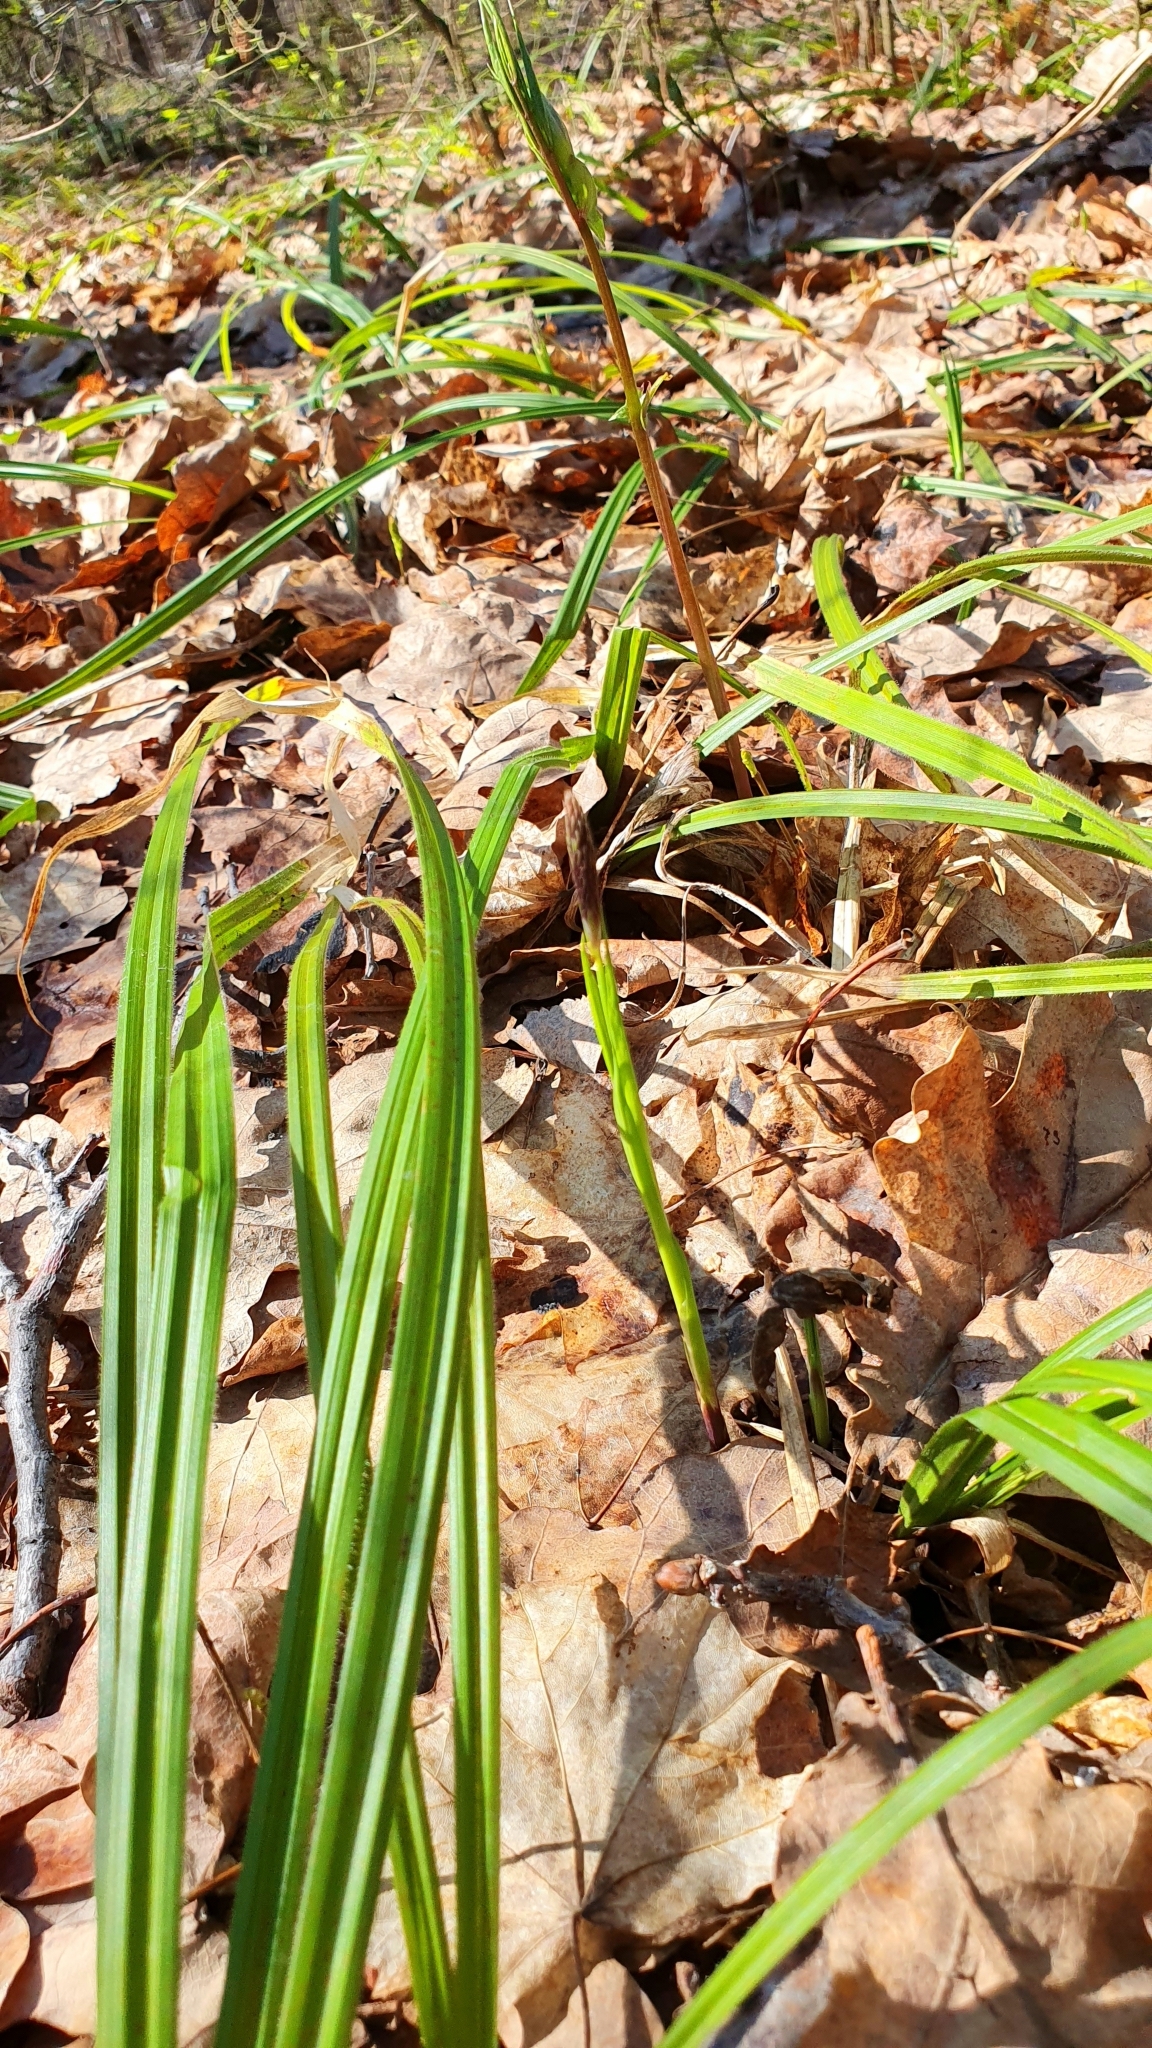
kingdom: Plantae
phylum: Tracheophyta
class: Liliopsida
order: Poales
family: Cyperaceae
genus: Carex
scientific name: Carex pilosa
